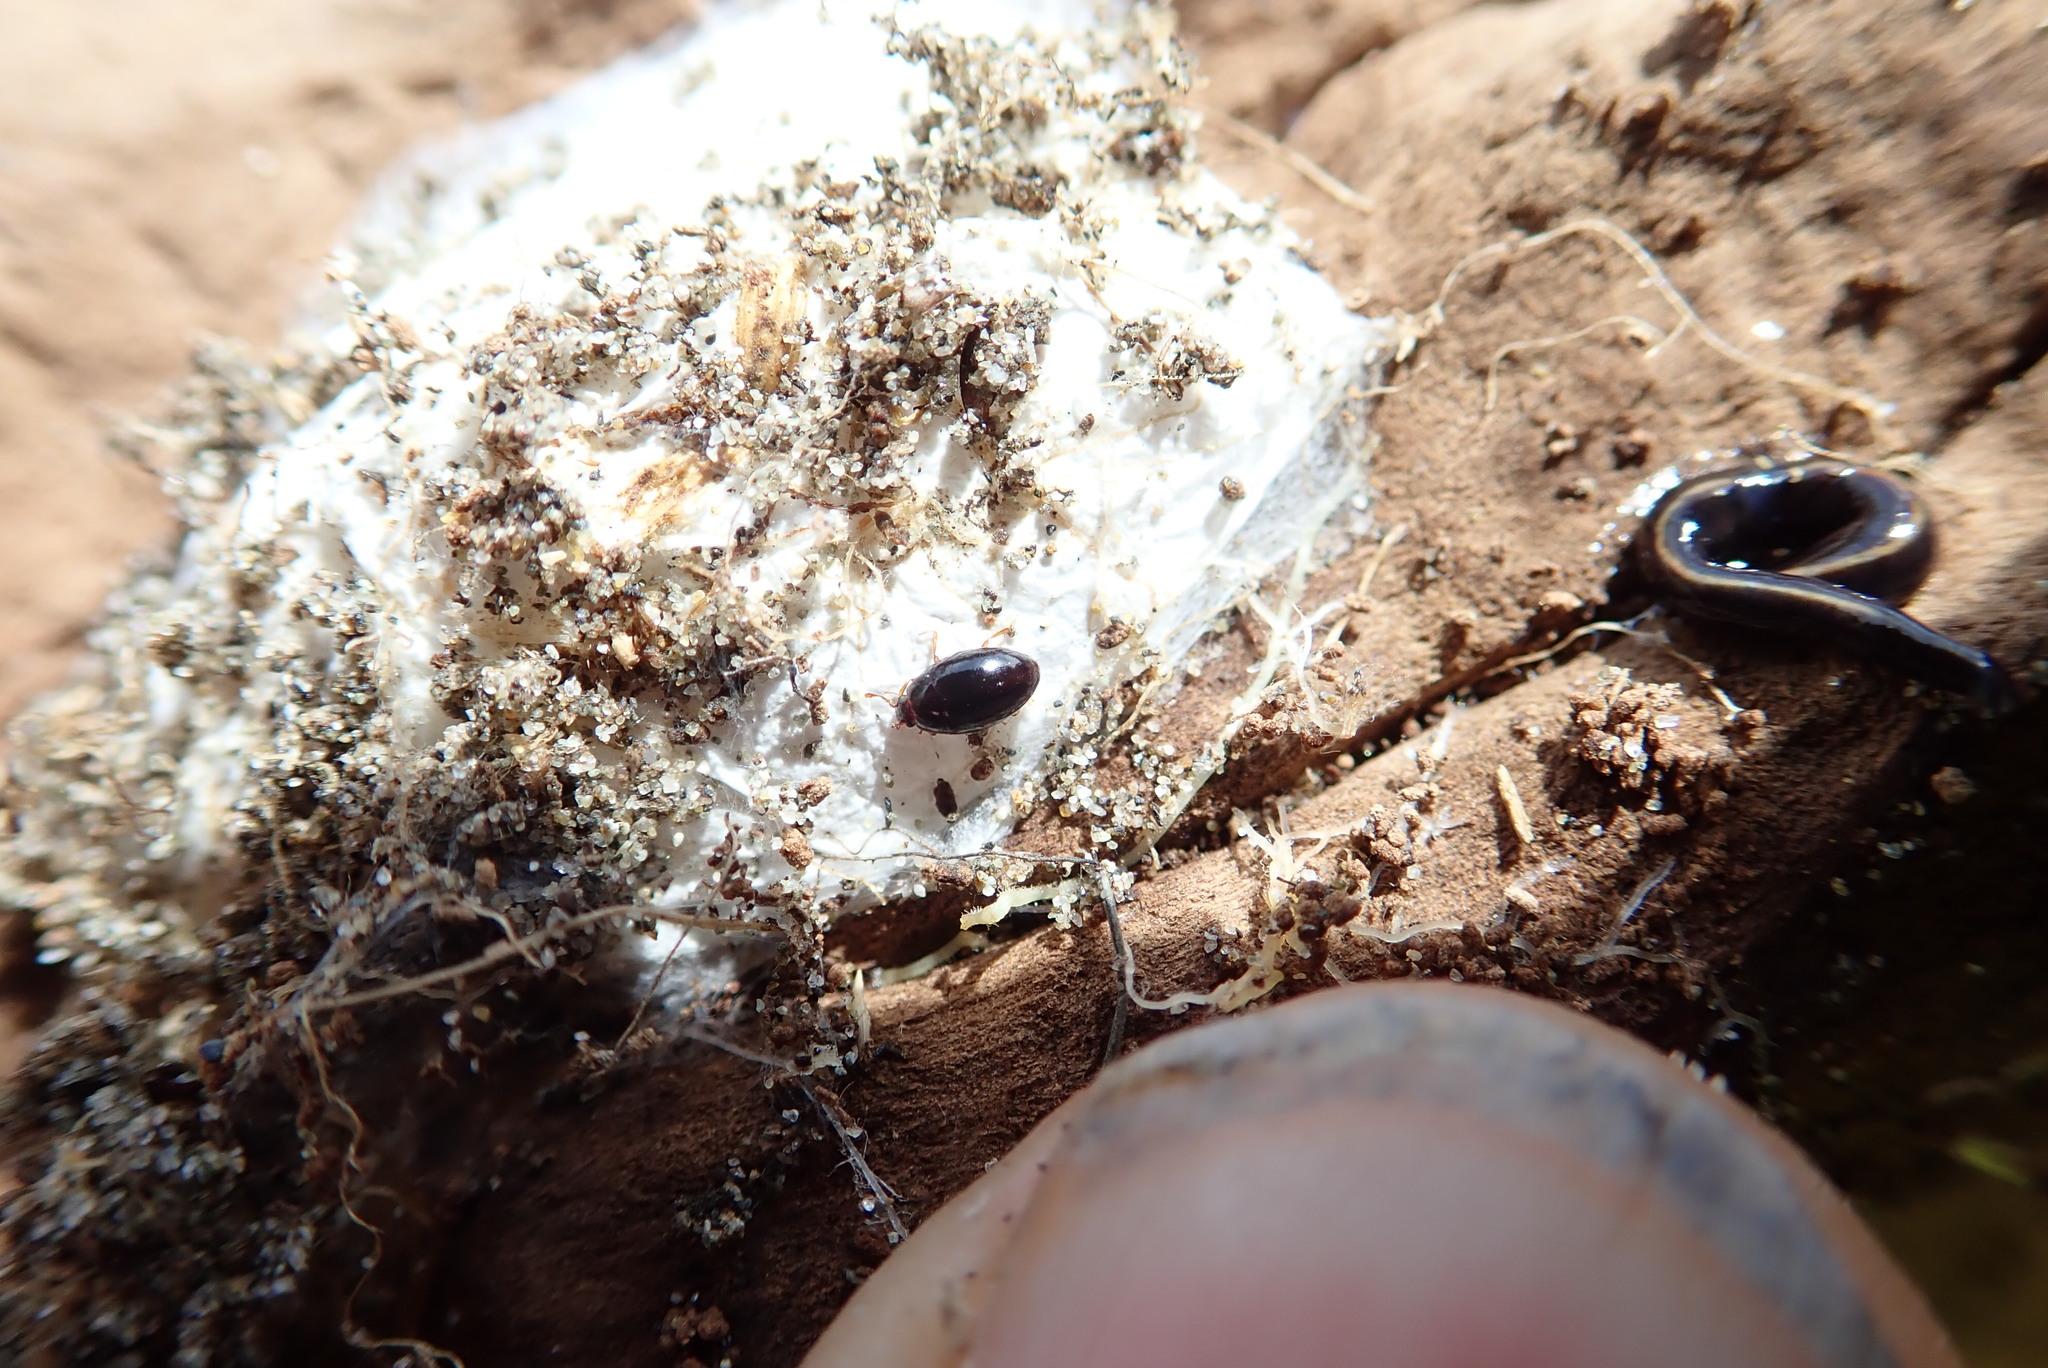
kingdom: Animalia
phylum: Platyhelminthes
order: Tricladida
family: Geoplanidae
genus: Caenoplana
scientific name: Caenoplana coerulea
